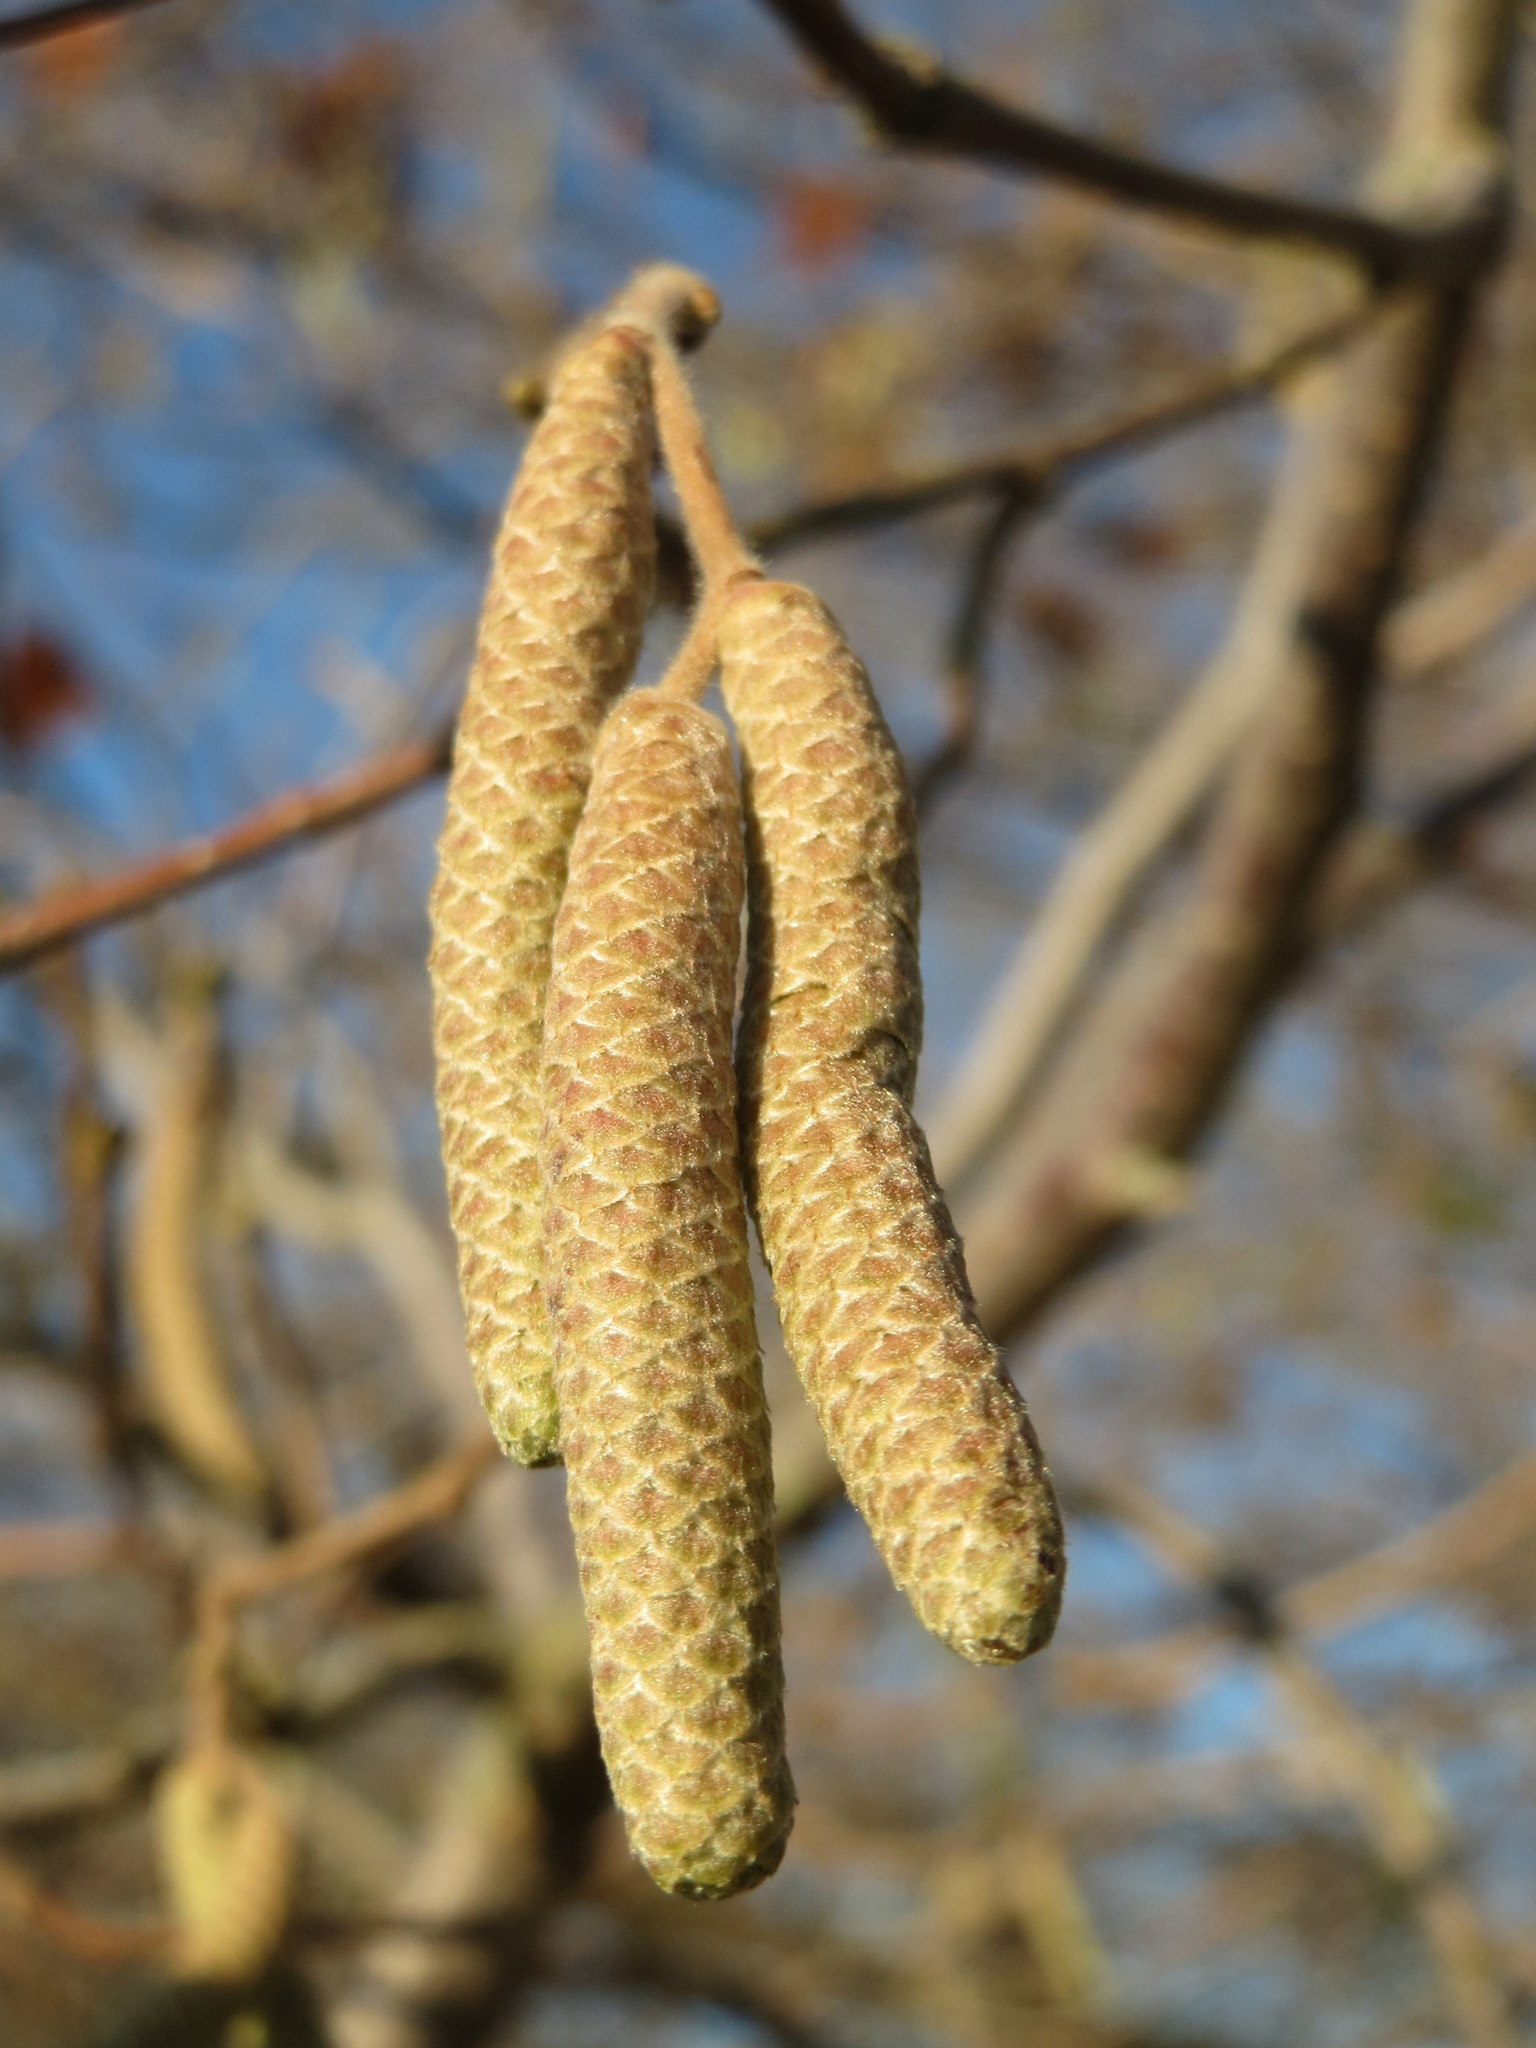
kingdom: Plantae
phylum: Tracheophyta
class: Magnoliopsida
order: Fagales
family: Betulaceae
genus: Corylus
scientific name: Corylus avellana
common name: European hazel
